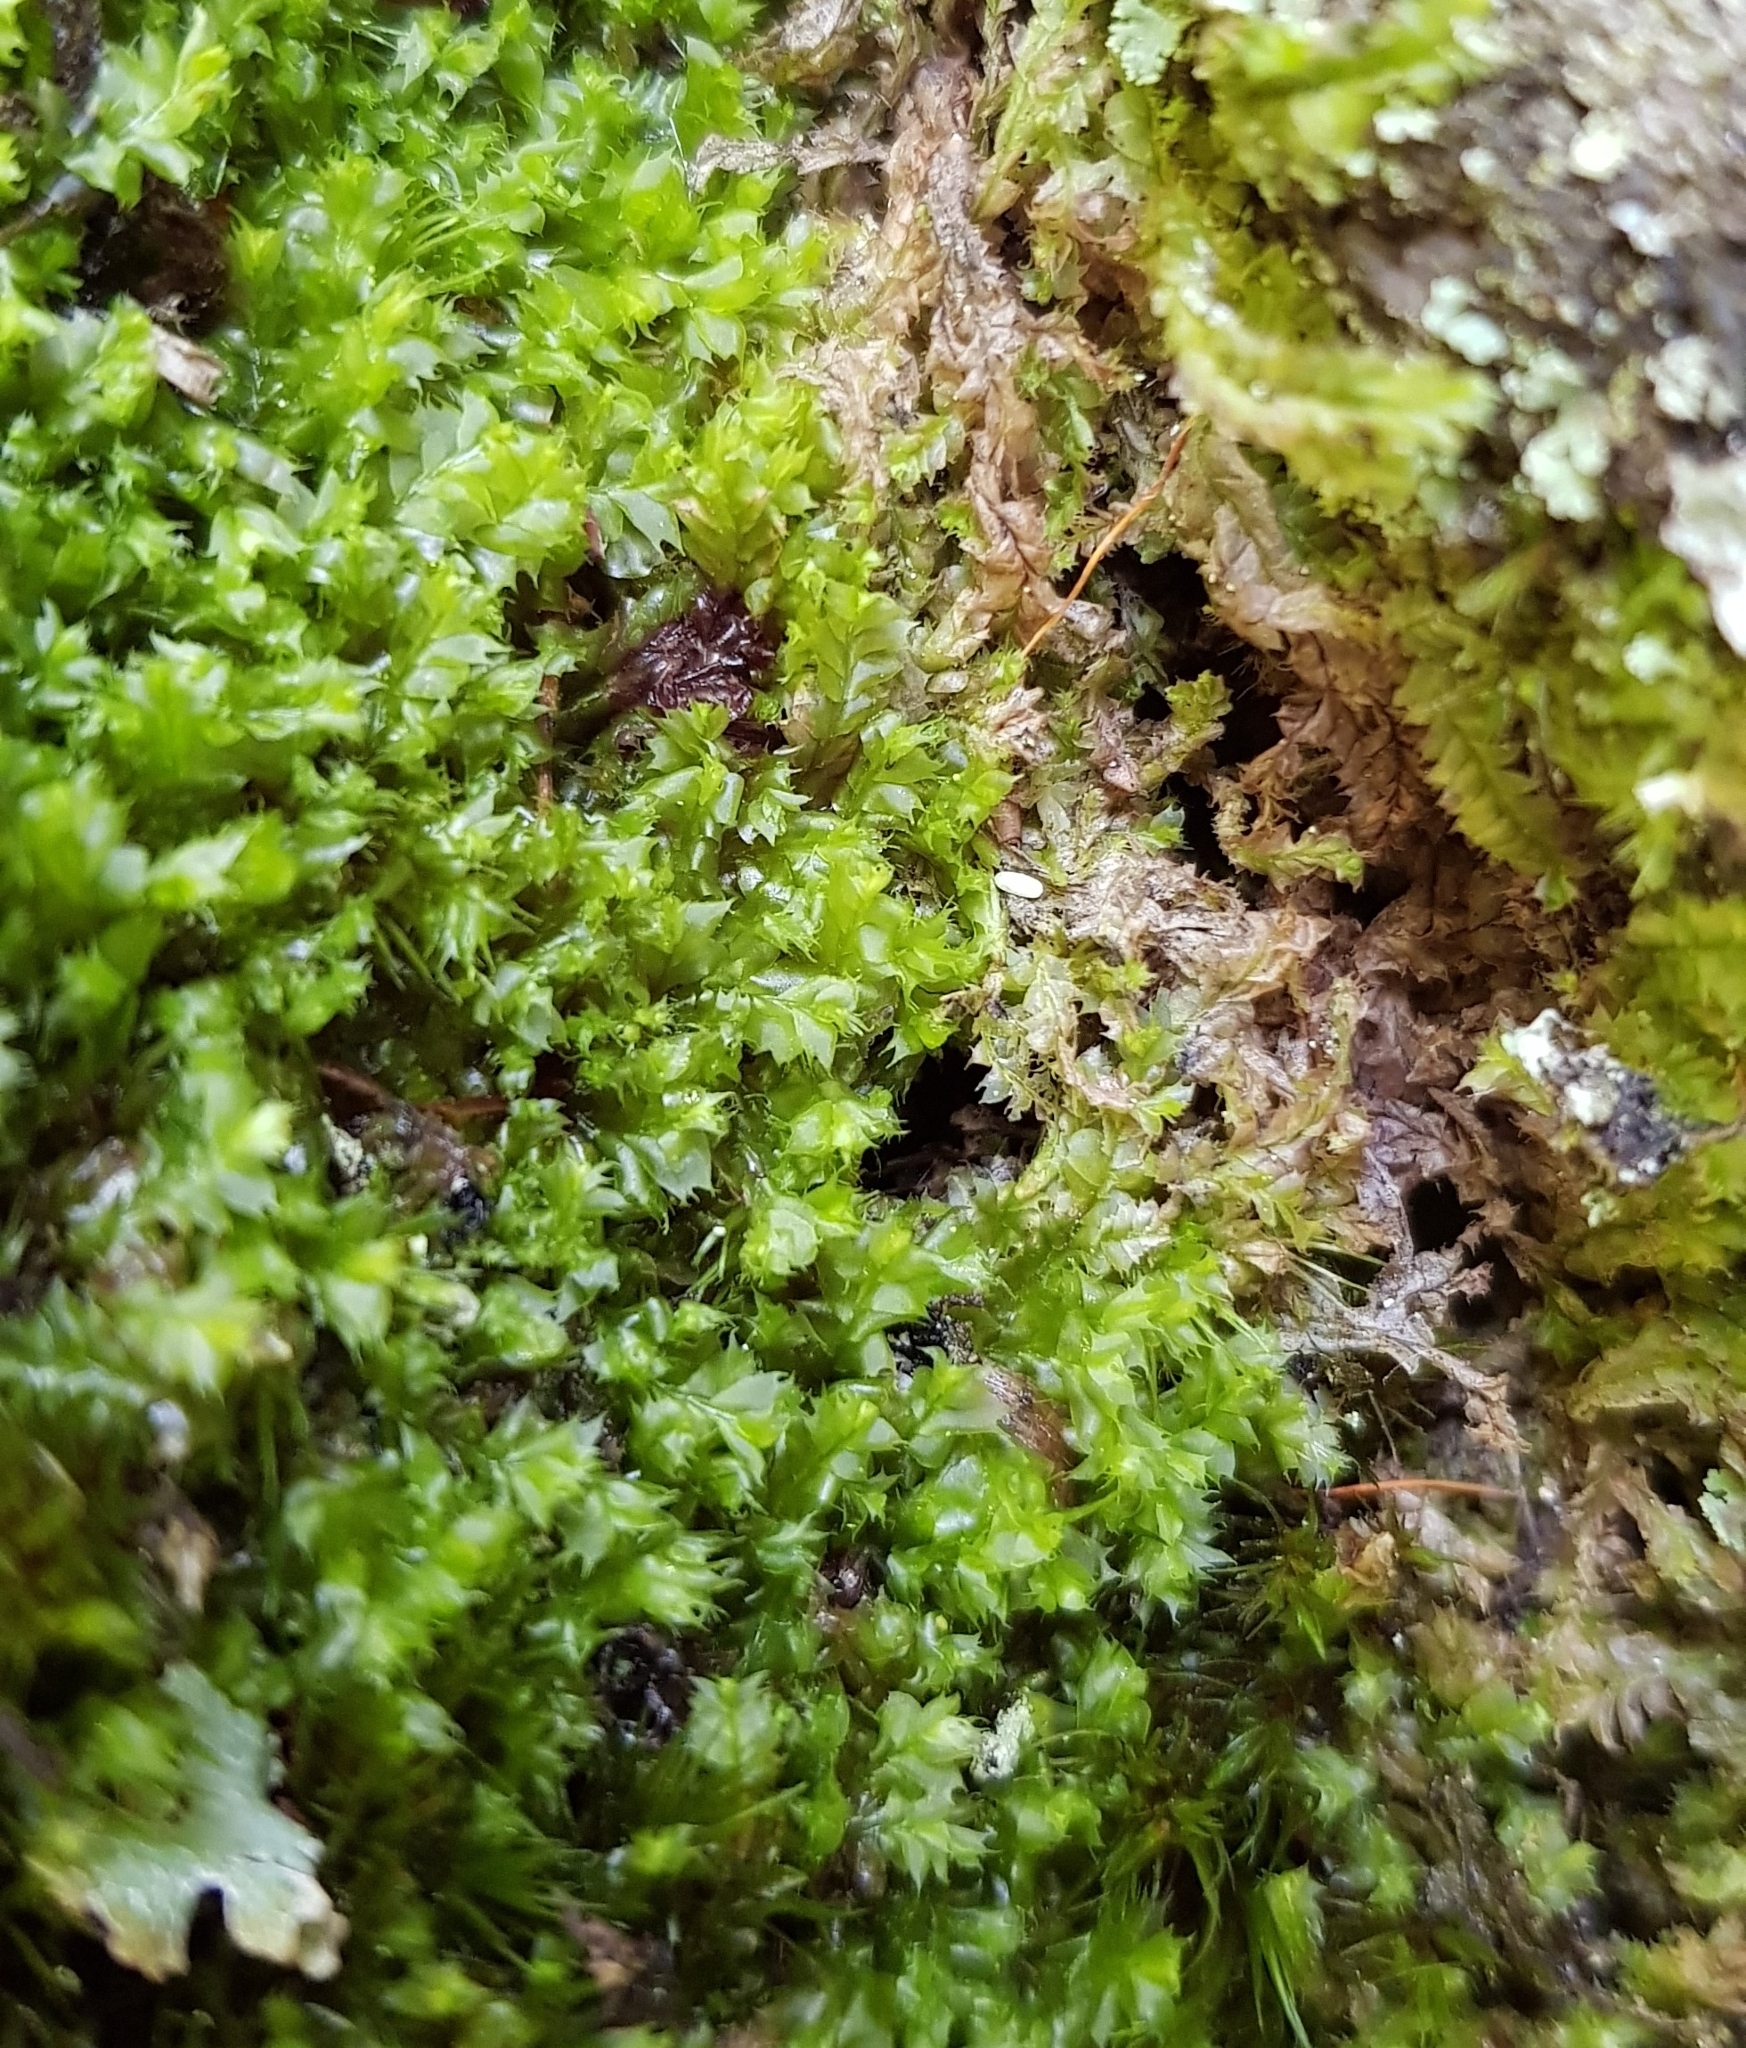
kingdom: Plantae
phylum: Marchantiophyta
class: Jungermanniopsida
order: Jungermanniales
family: Lophocoleaceae
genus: Lophocolea
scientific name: Lophocolea bidentata
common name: Bifid crestwort
